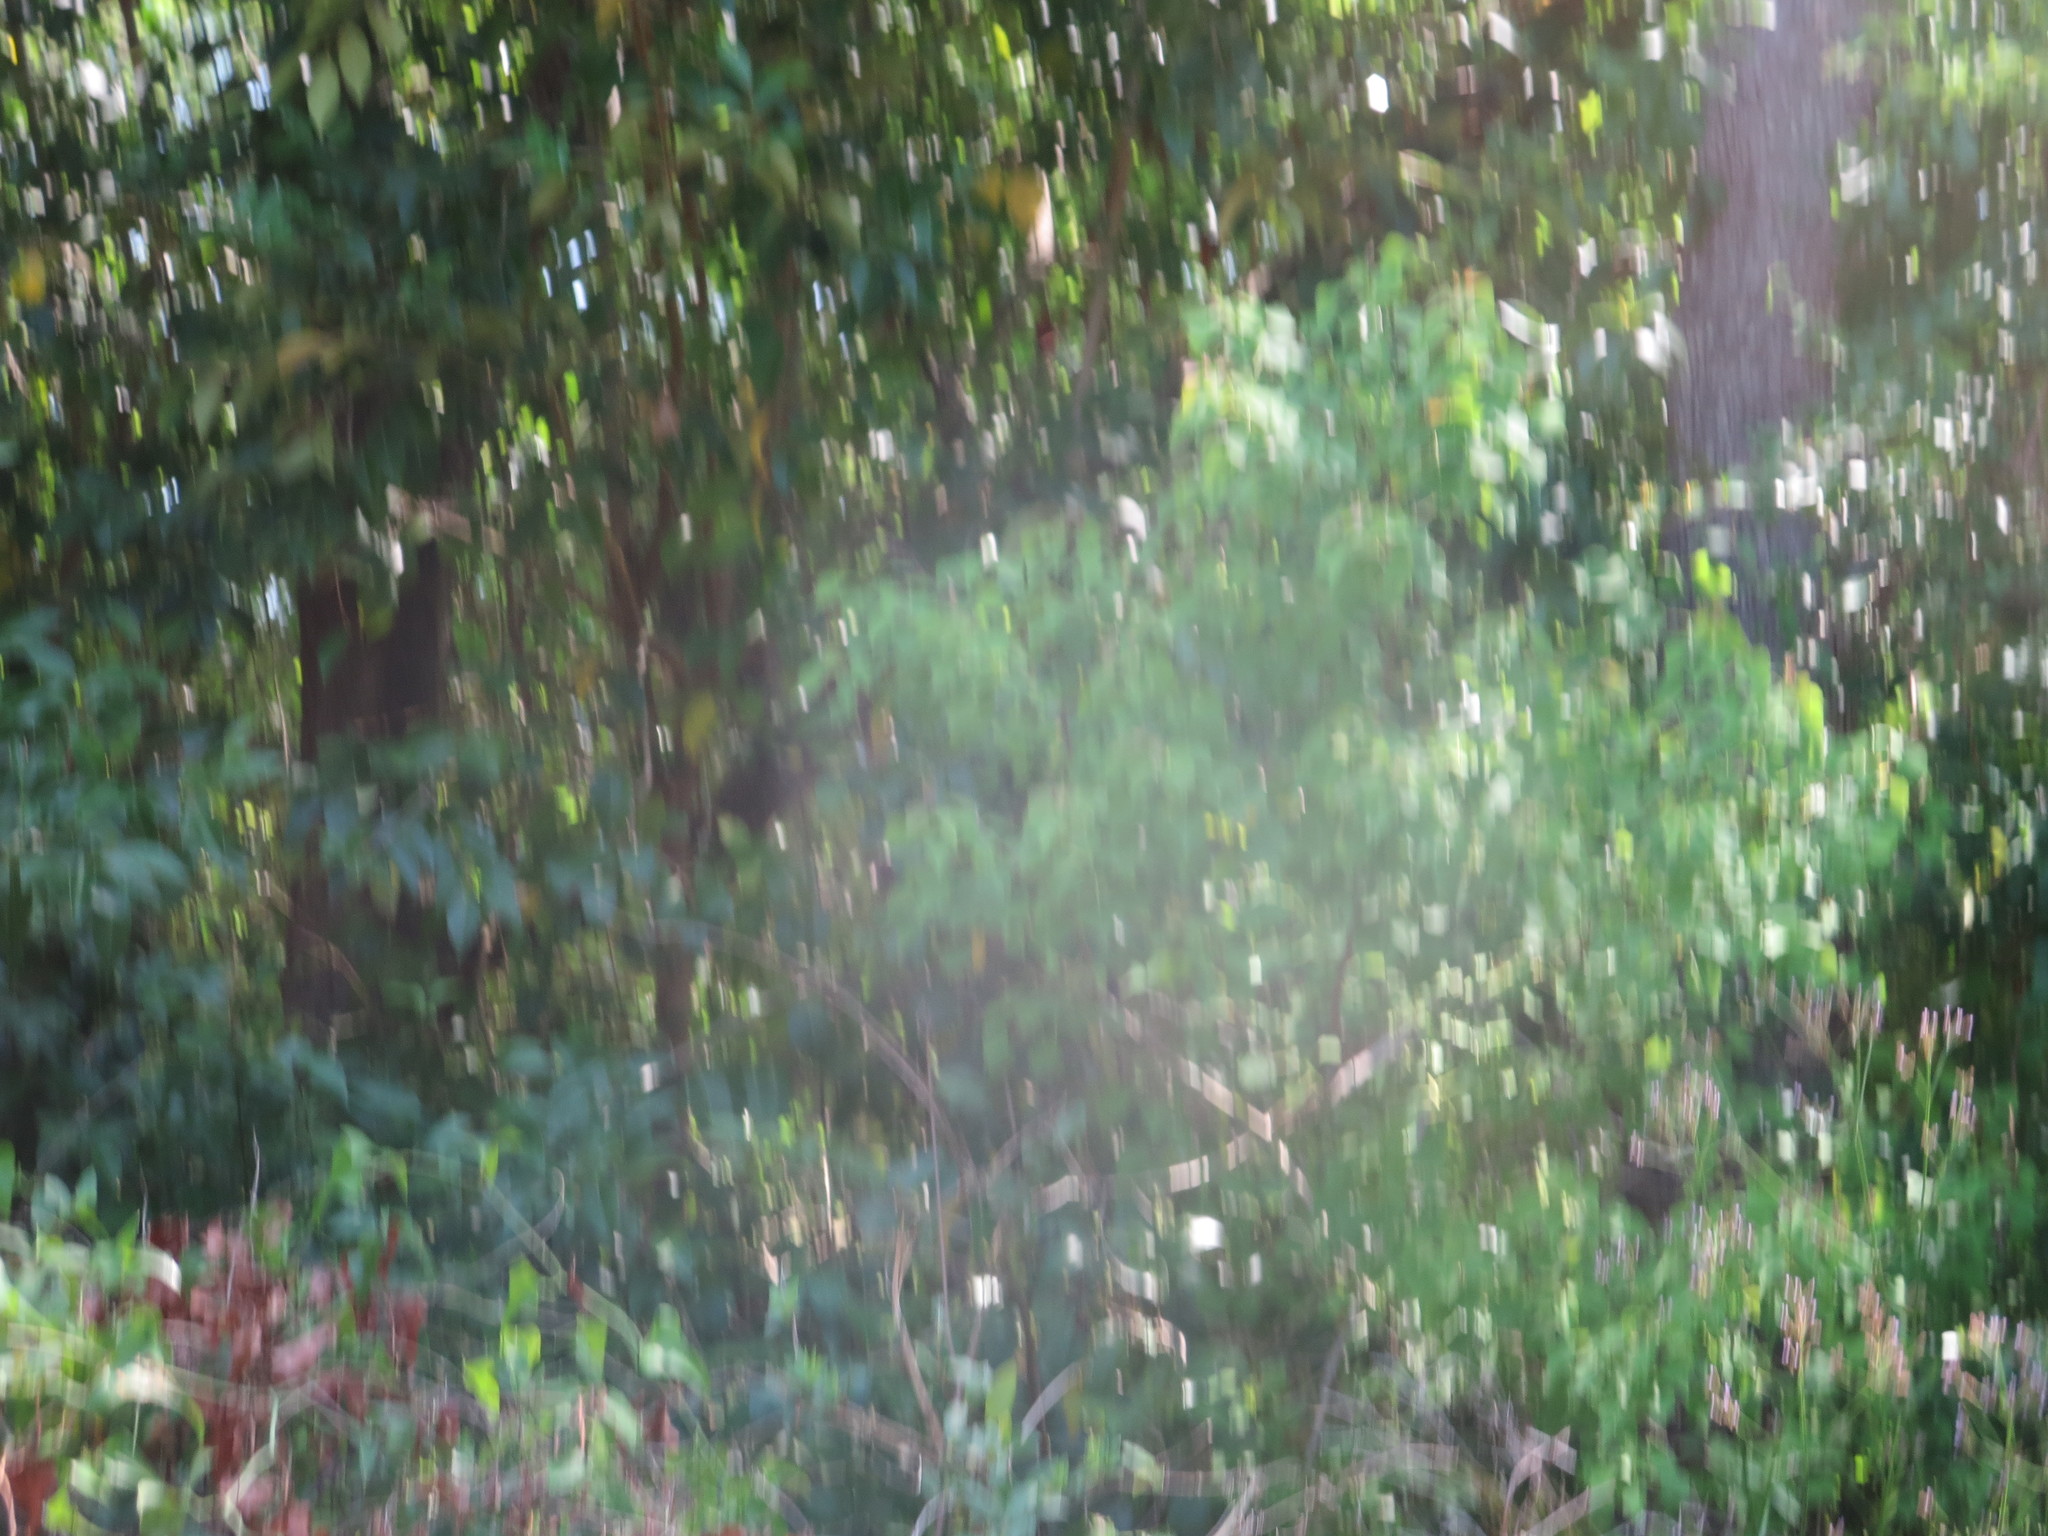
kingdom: Plantae
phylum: Tracheophyta
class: Magnoliopsida
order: Malpighiales
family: Euphorbiaceae
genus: Triadica
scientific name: Triadica sebifera
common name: Chinese tallow
